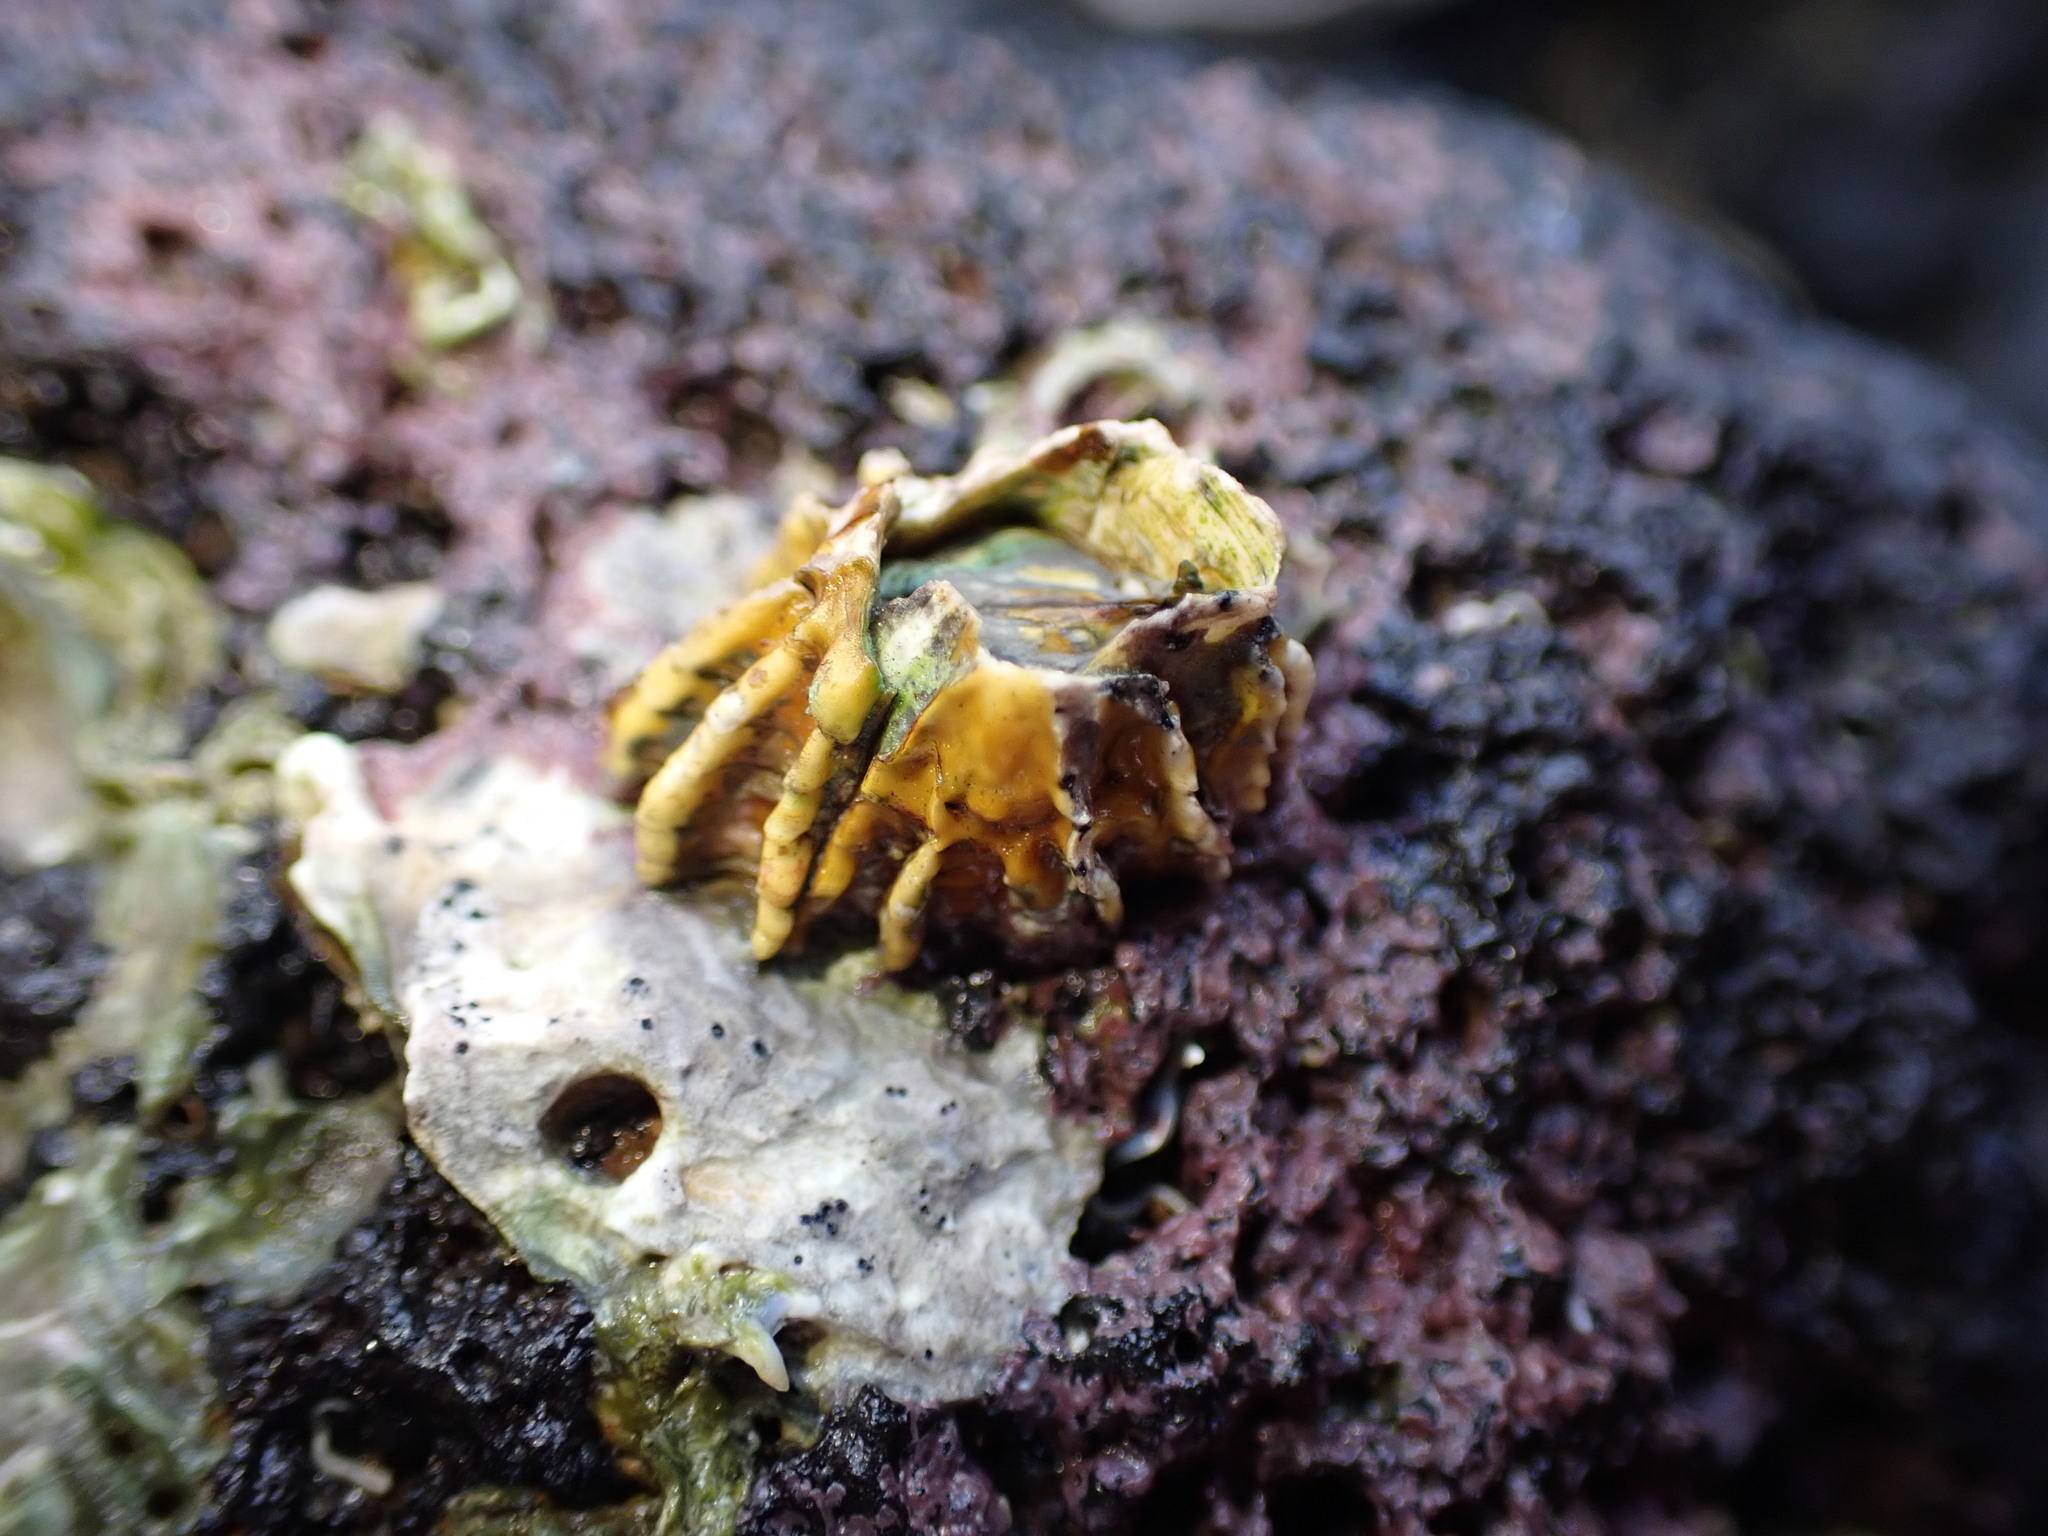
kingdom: Animalia
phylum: Arthropoda
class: Maxillopoda
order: Sessilia
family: Tetraclitidae
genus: Epopella
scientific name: Epopella plicata
